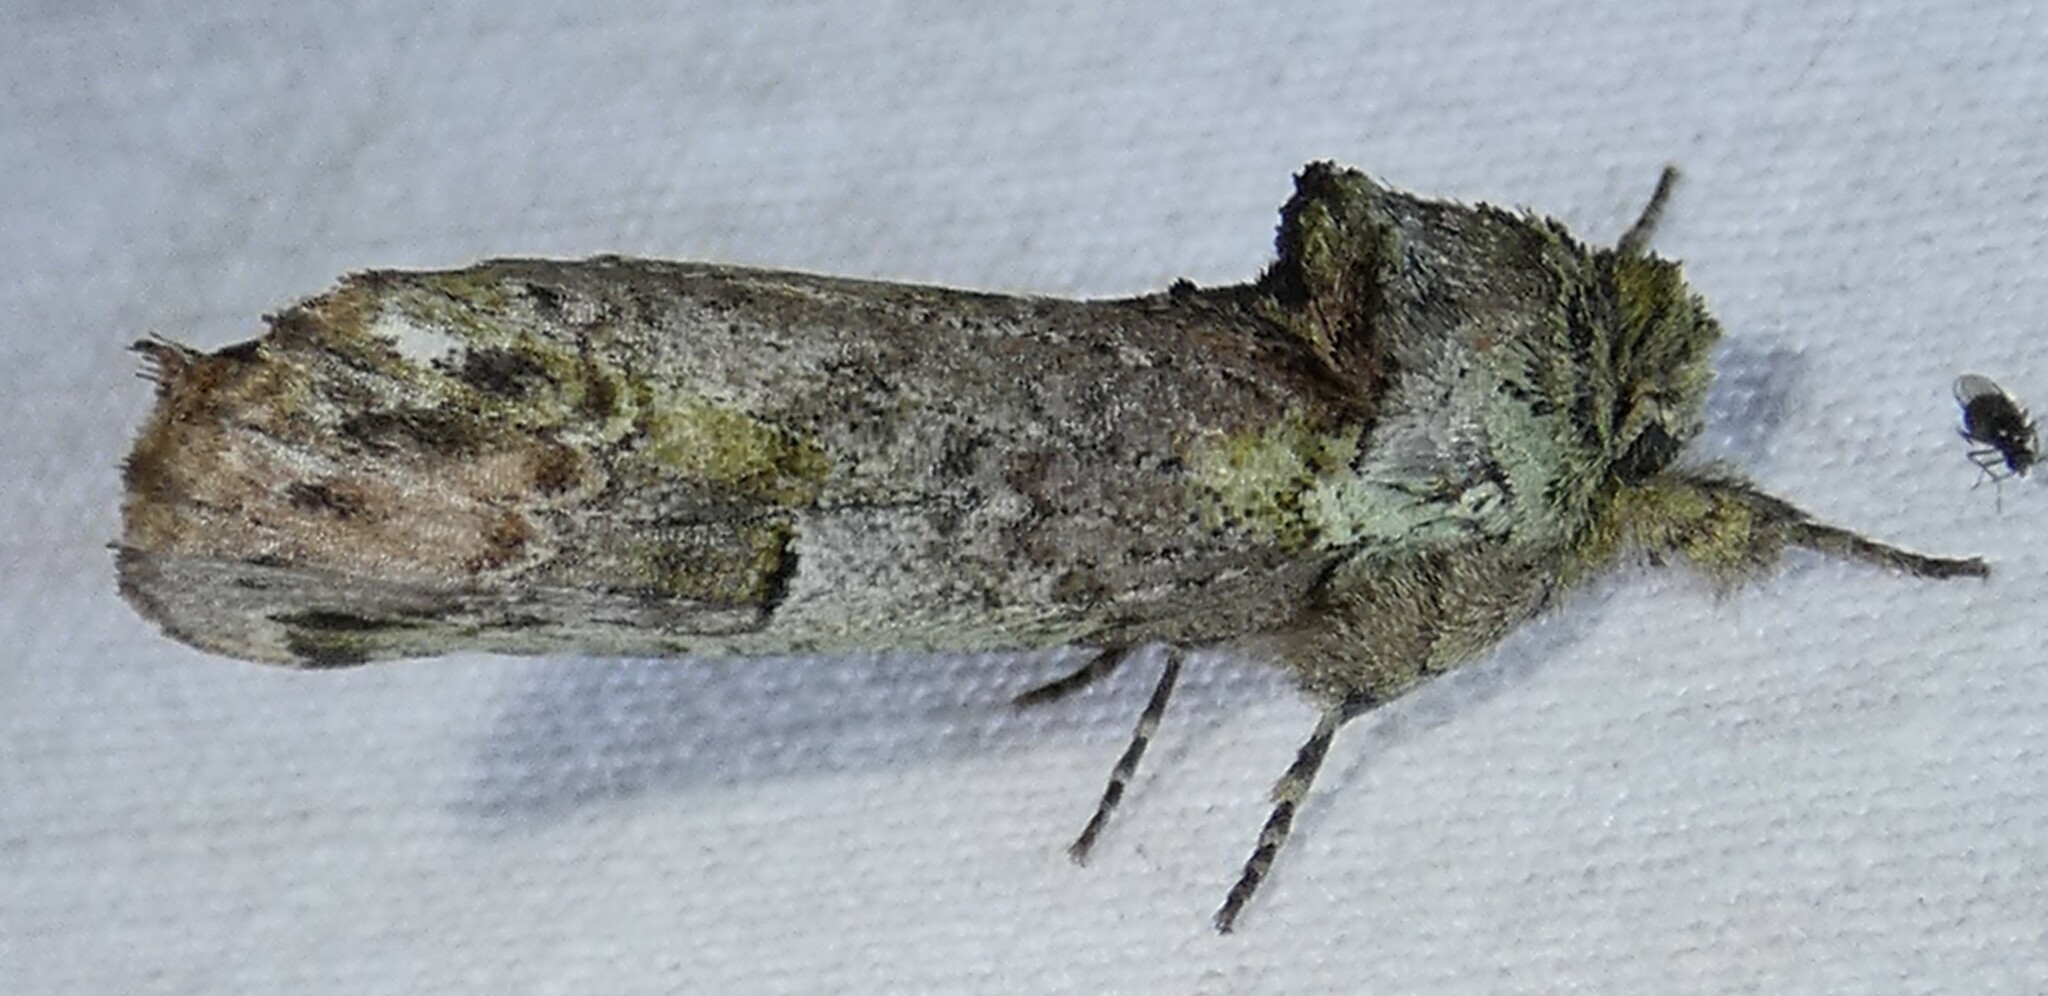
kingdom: Animalia
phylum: Arthropoda
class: Insecta
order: Lepidoptera
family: Notodontidae
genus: Schizura
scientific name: Schizura
